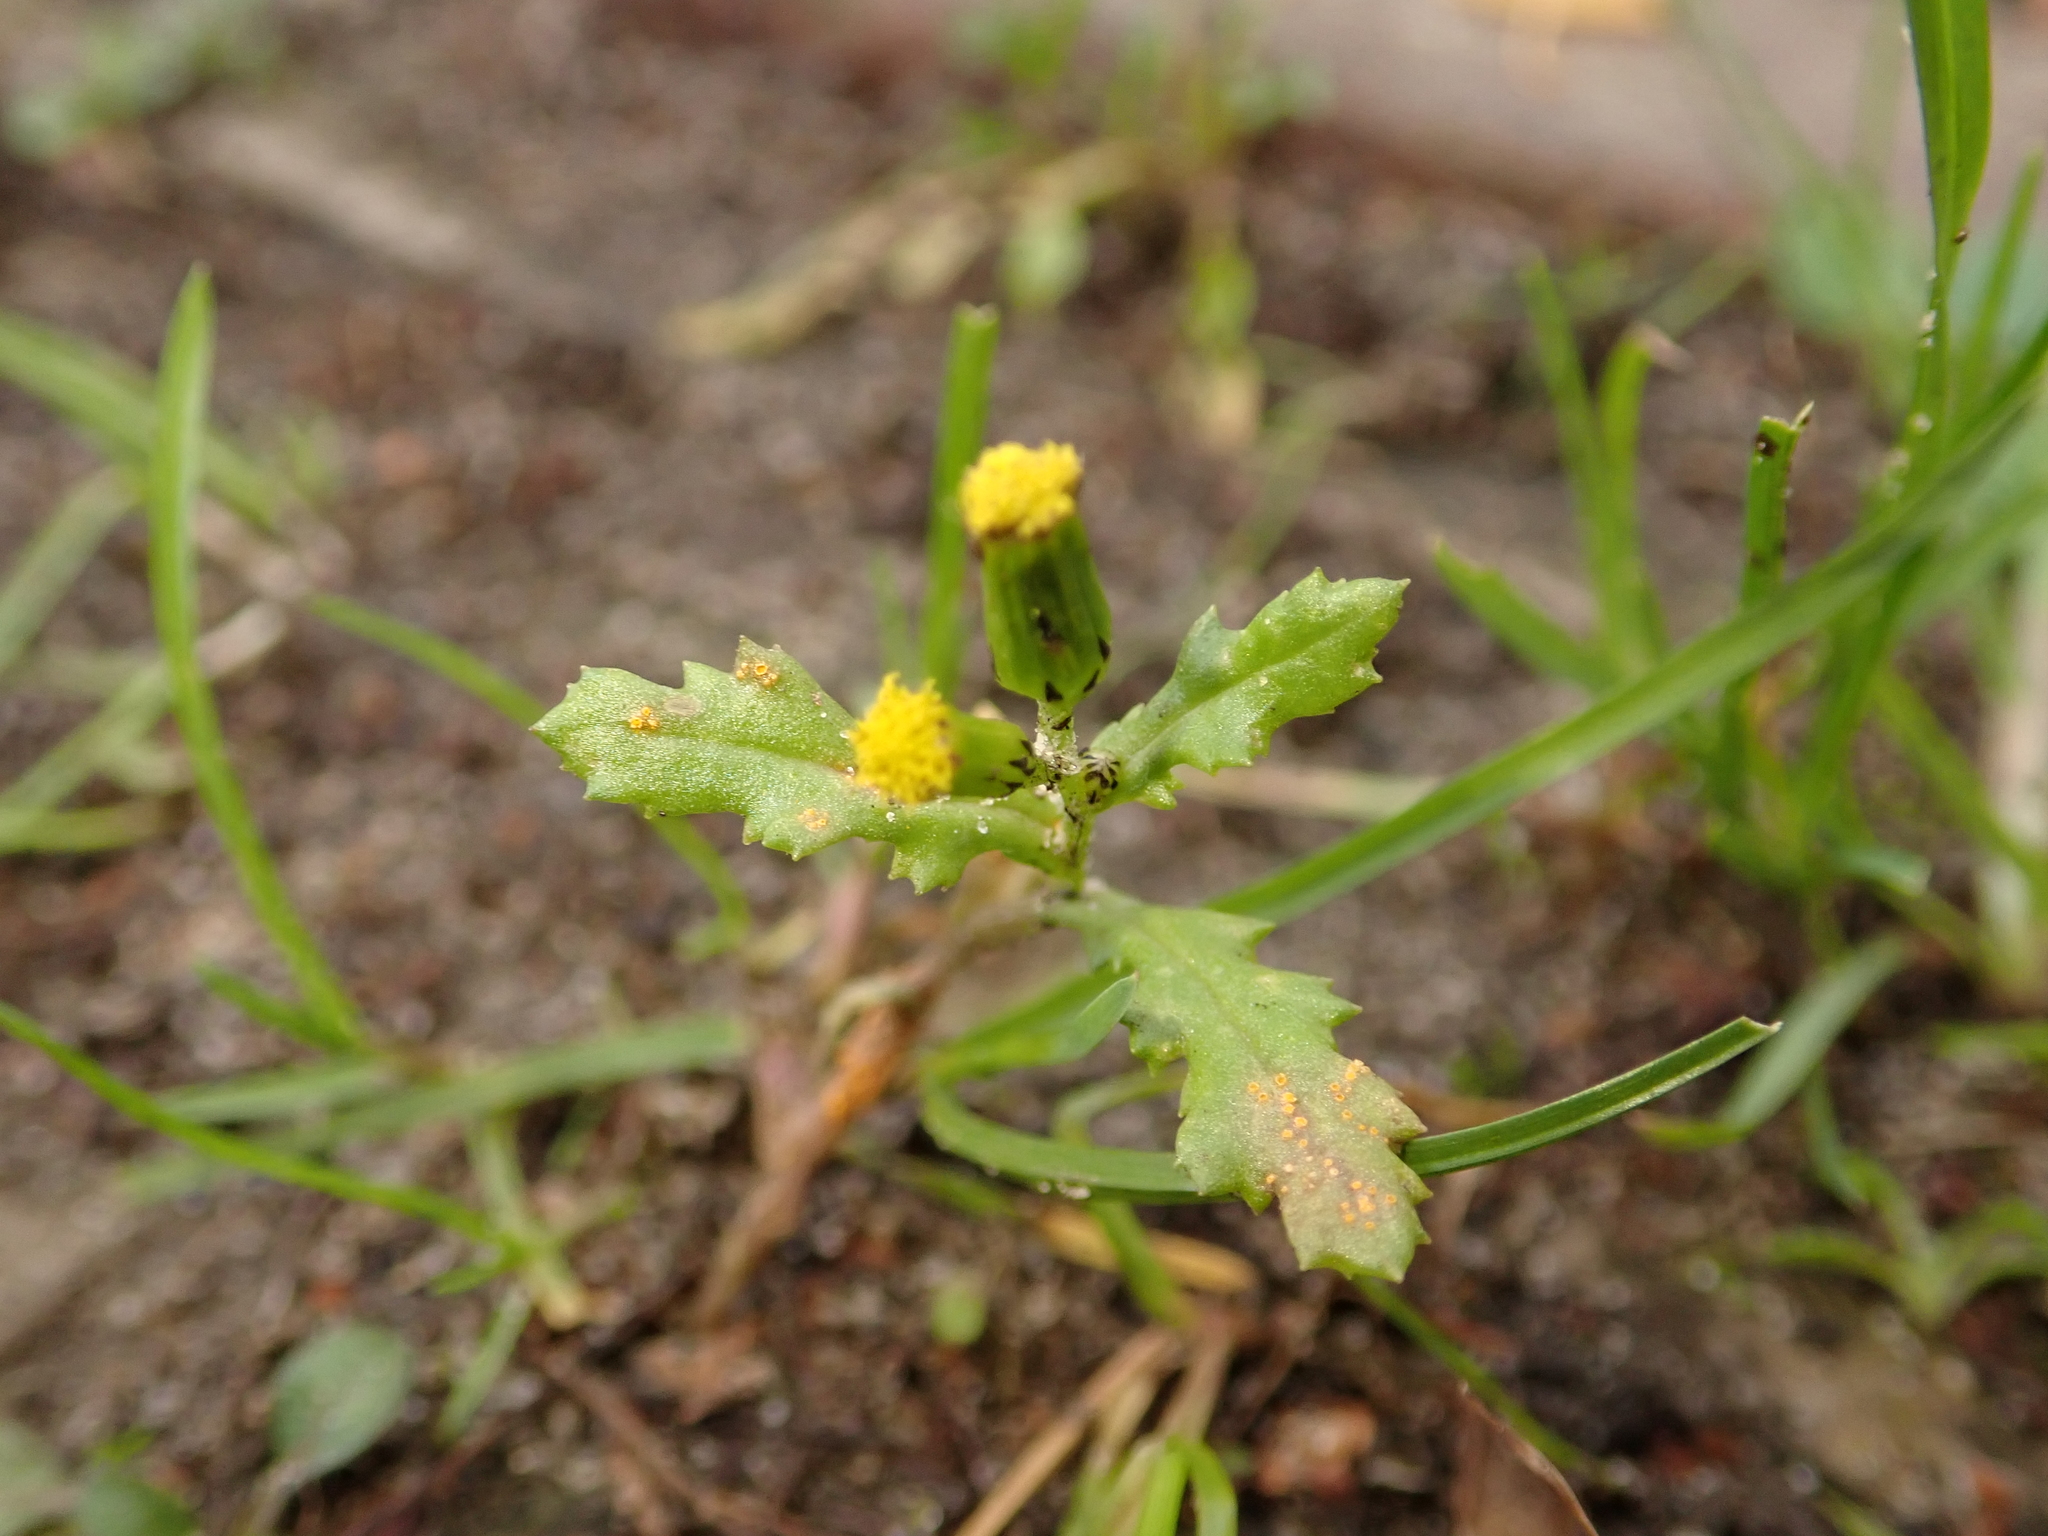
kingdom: Plantae
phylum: Tracheophyta
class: Magnoliopsida
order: Asterales
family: Asteraceae
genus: Senecio
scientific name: Senecio vulgaris
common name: Old-man-in-the-spring
